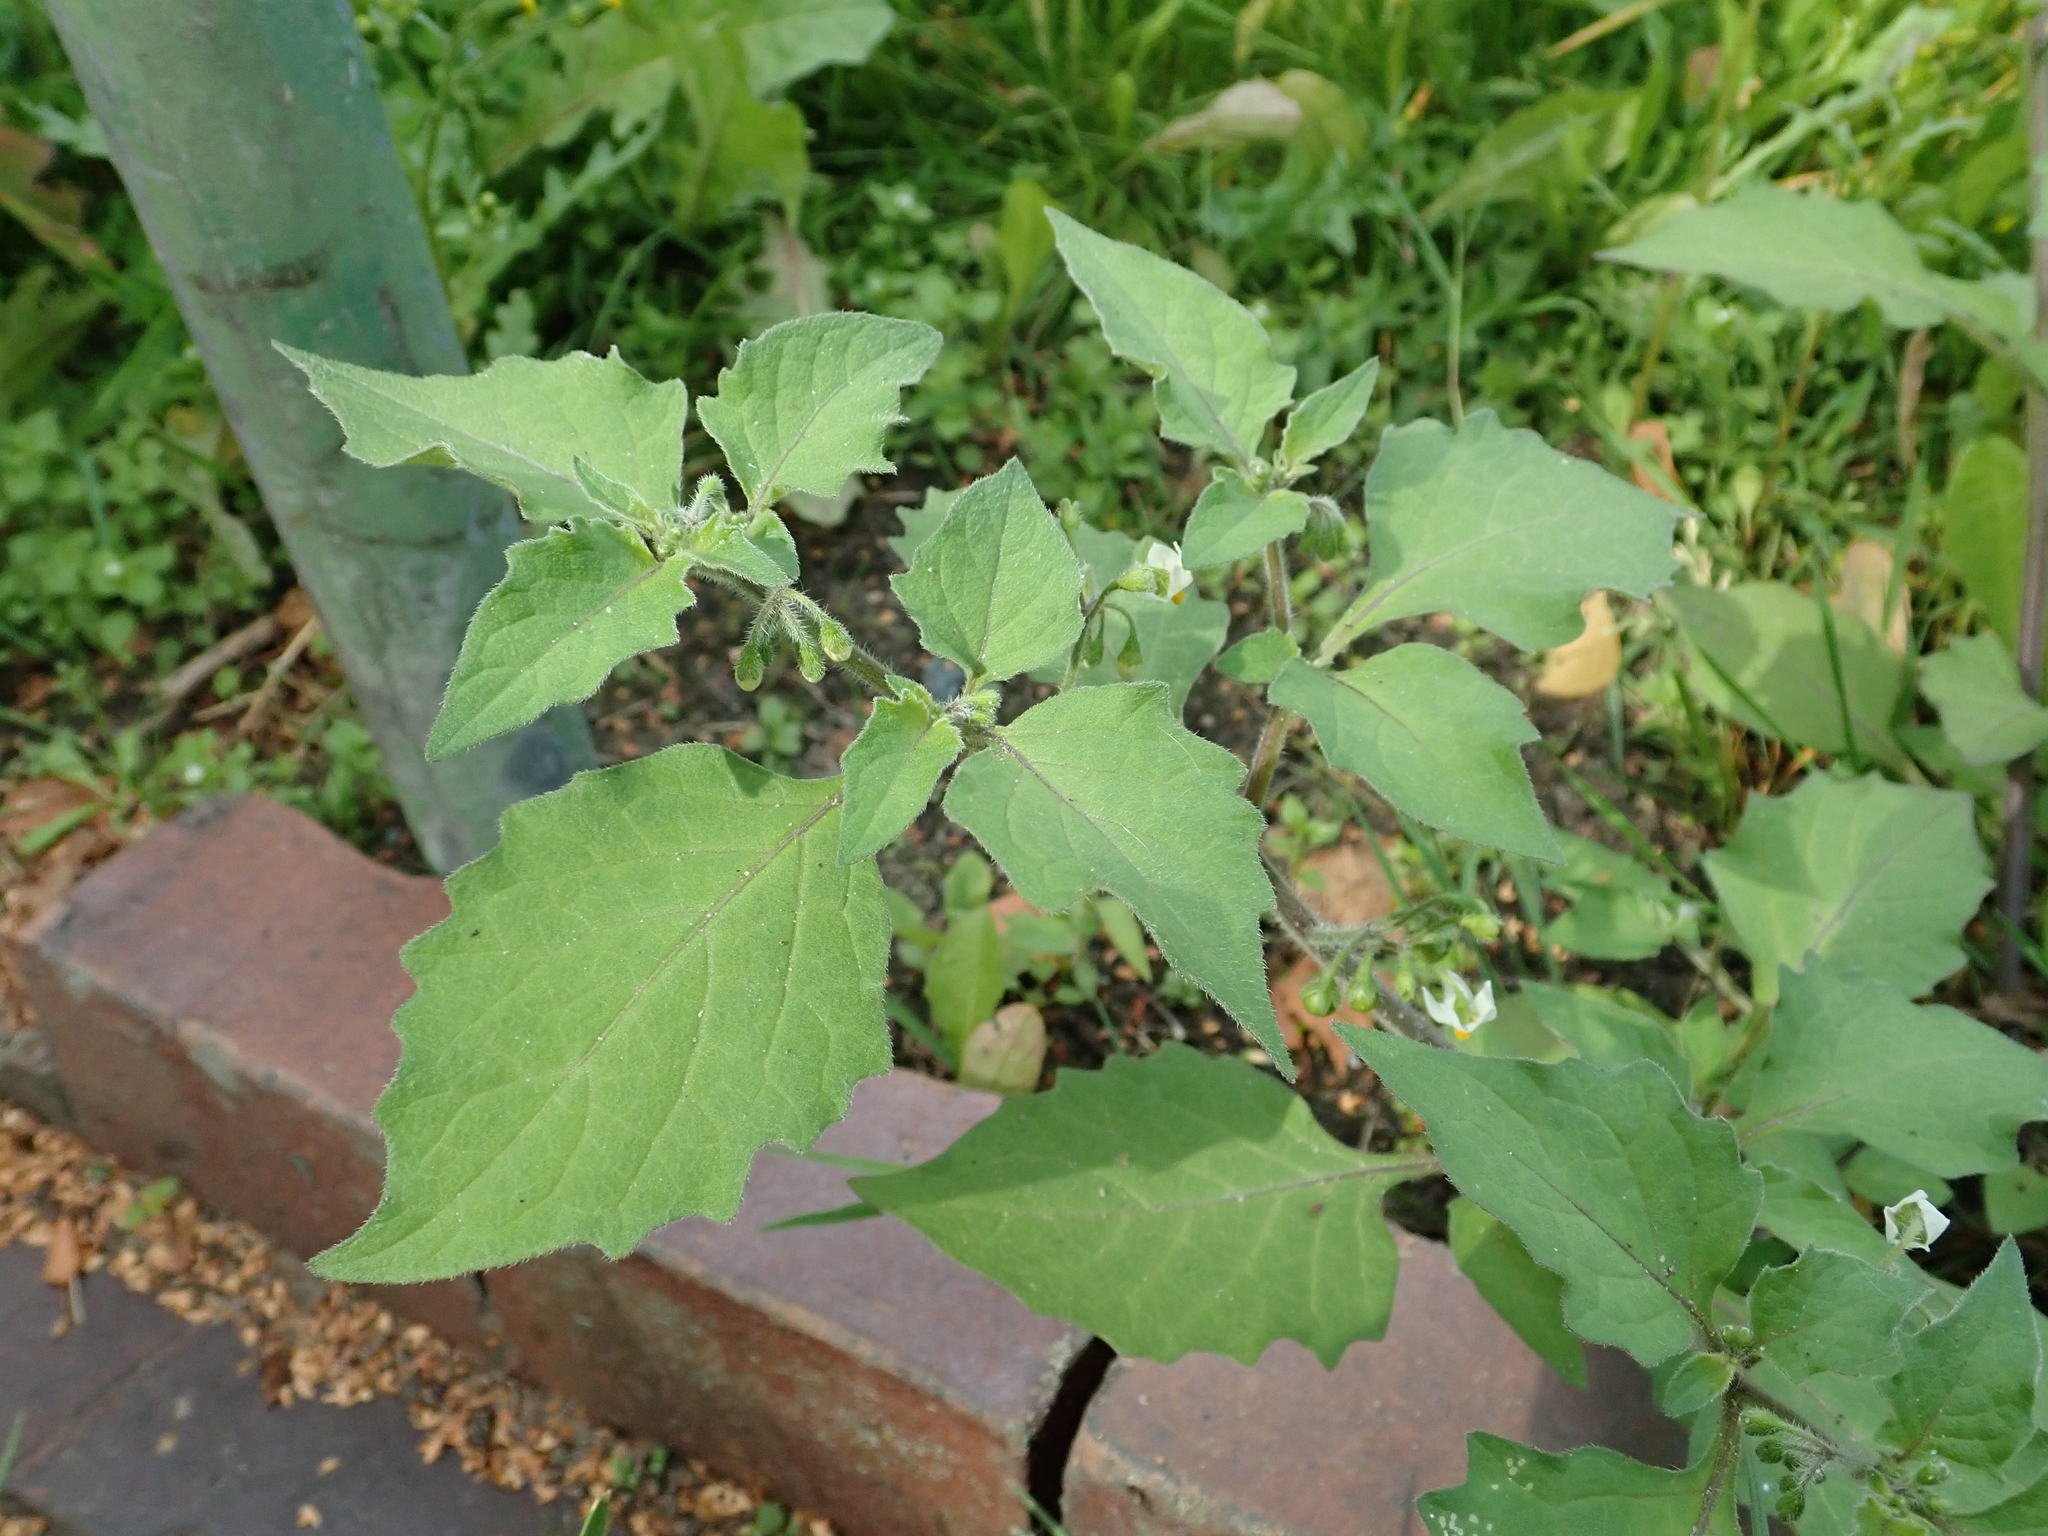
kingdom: Plantae
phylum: Tracheophyta
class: Magnoliopsida
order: Solanales
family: Solanaceae
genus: Solanum
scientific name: Solanum nigrum
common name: Black nightshade
